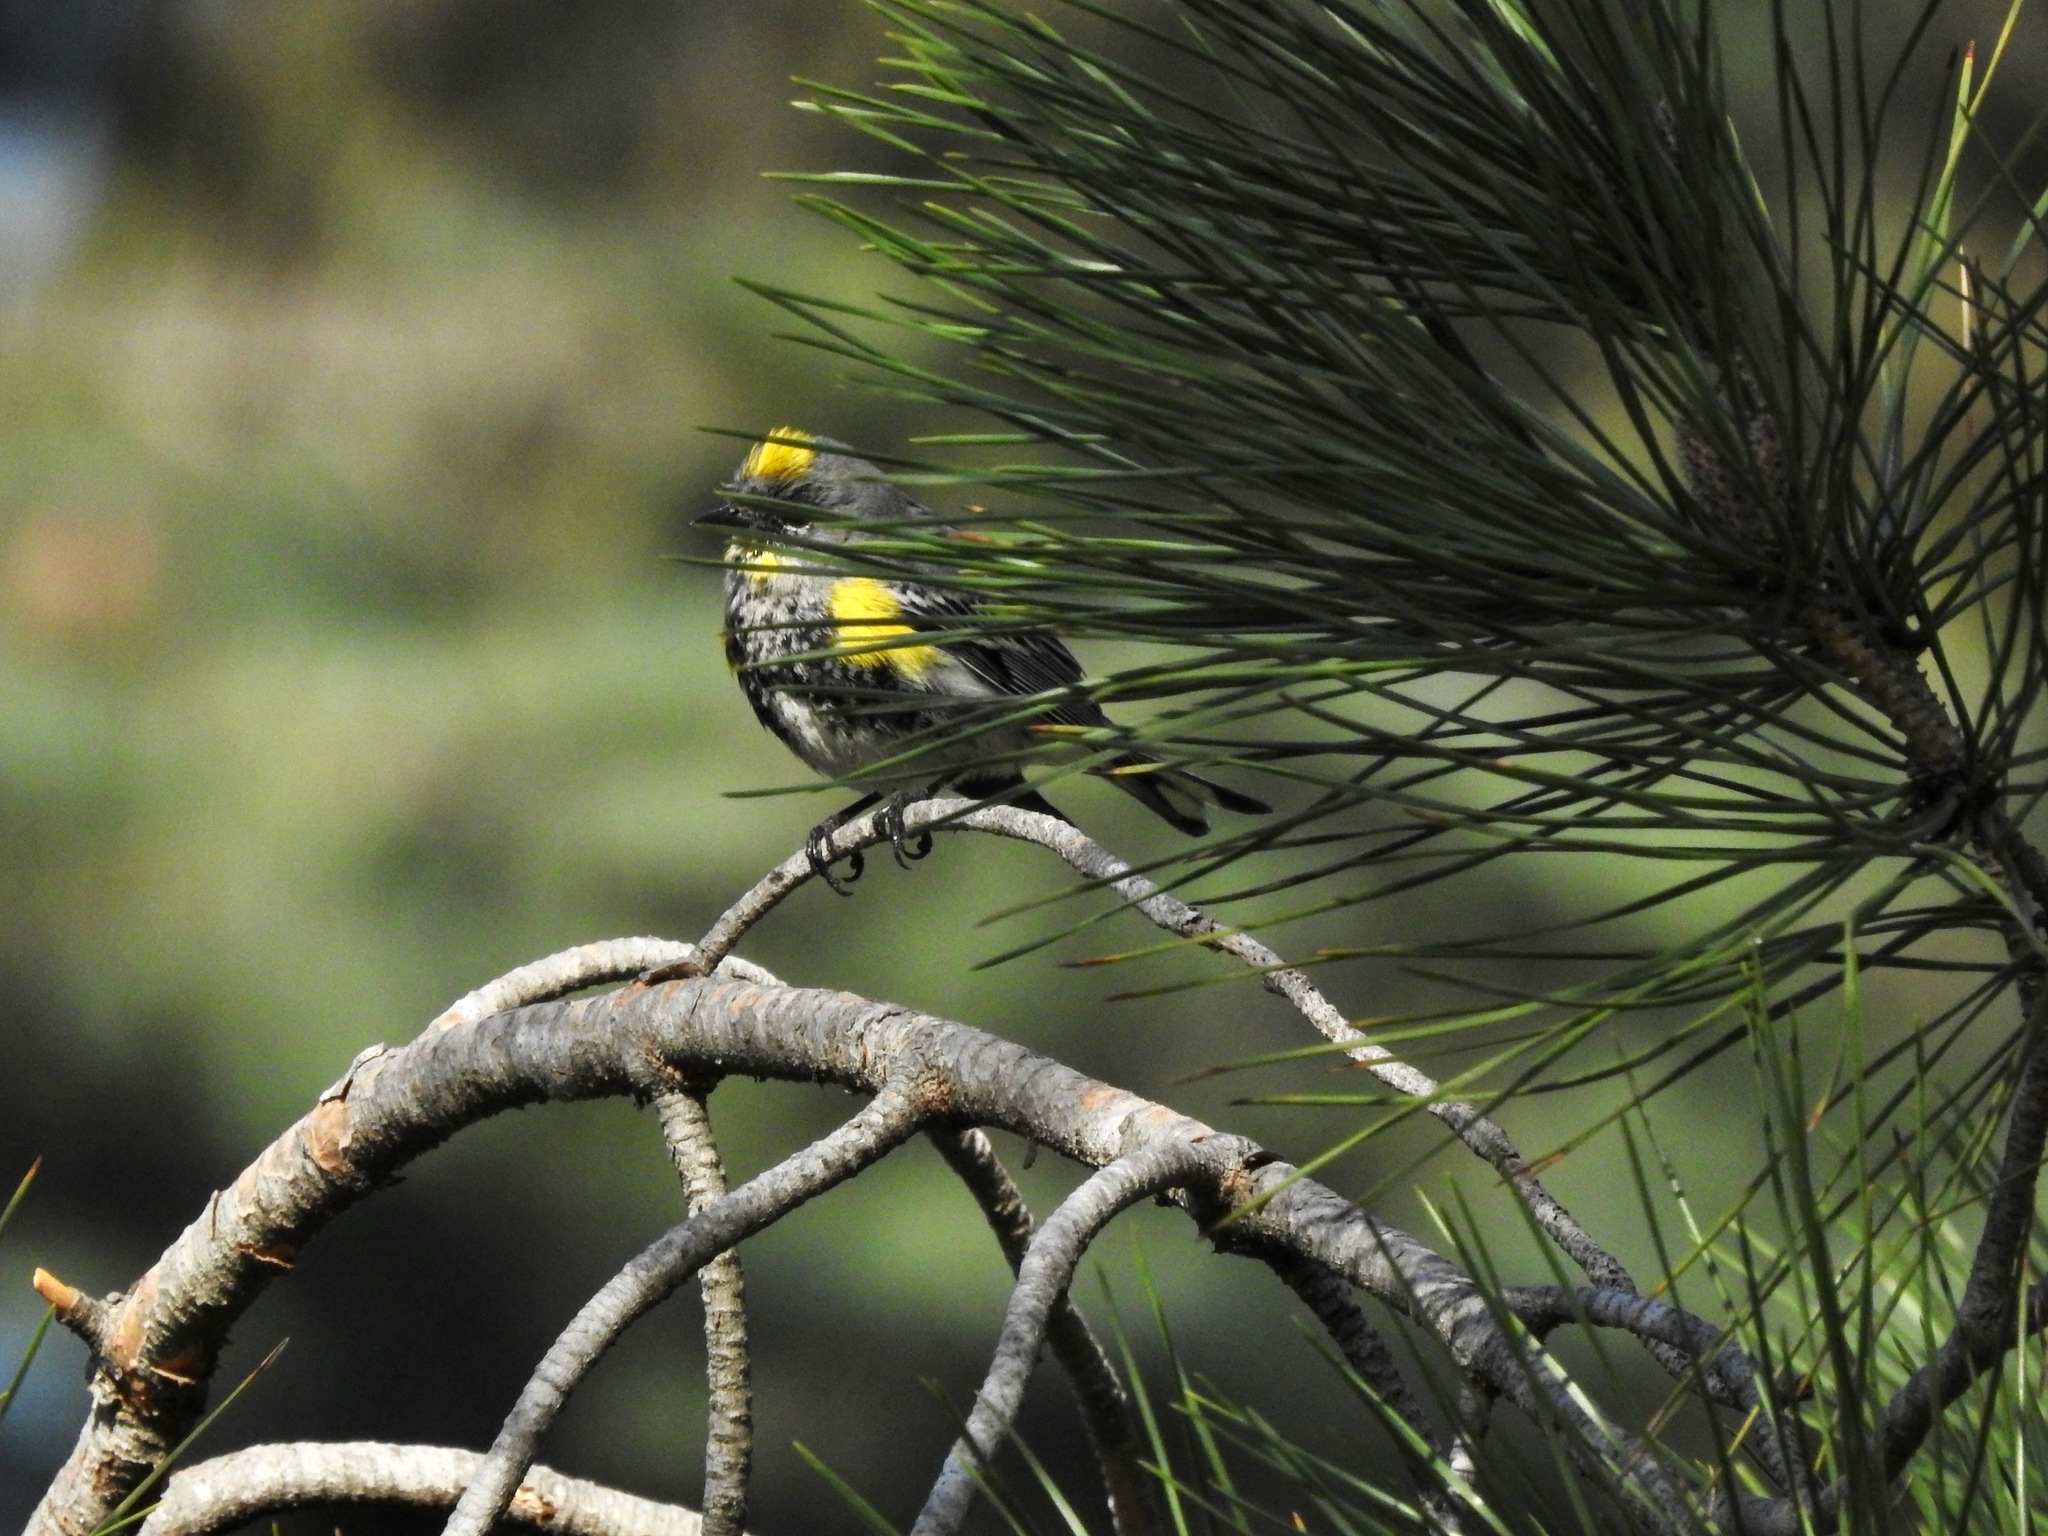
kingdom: Animalia
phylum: Chordata
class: Aves
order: Passeriformes
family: Parulidae
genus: Setophaga
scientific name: Setophaga auduboni
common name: Audubon's warbler
